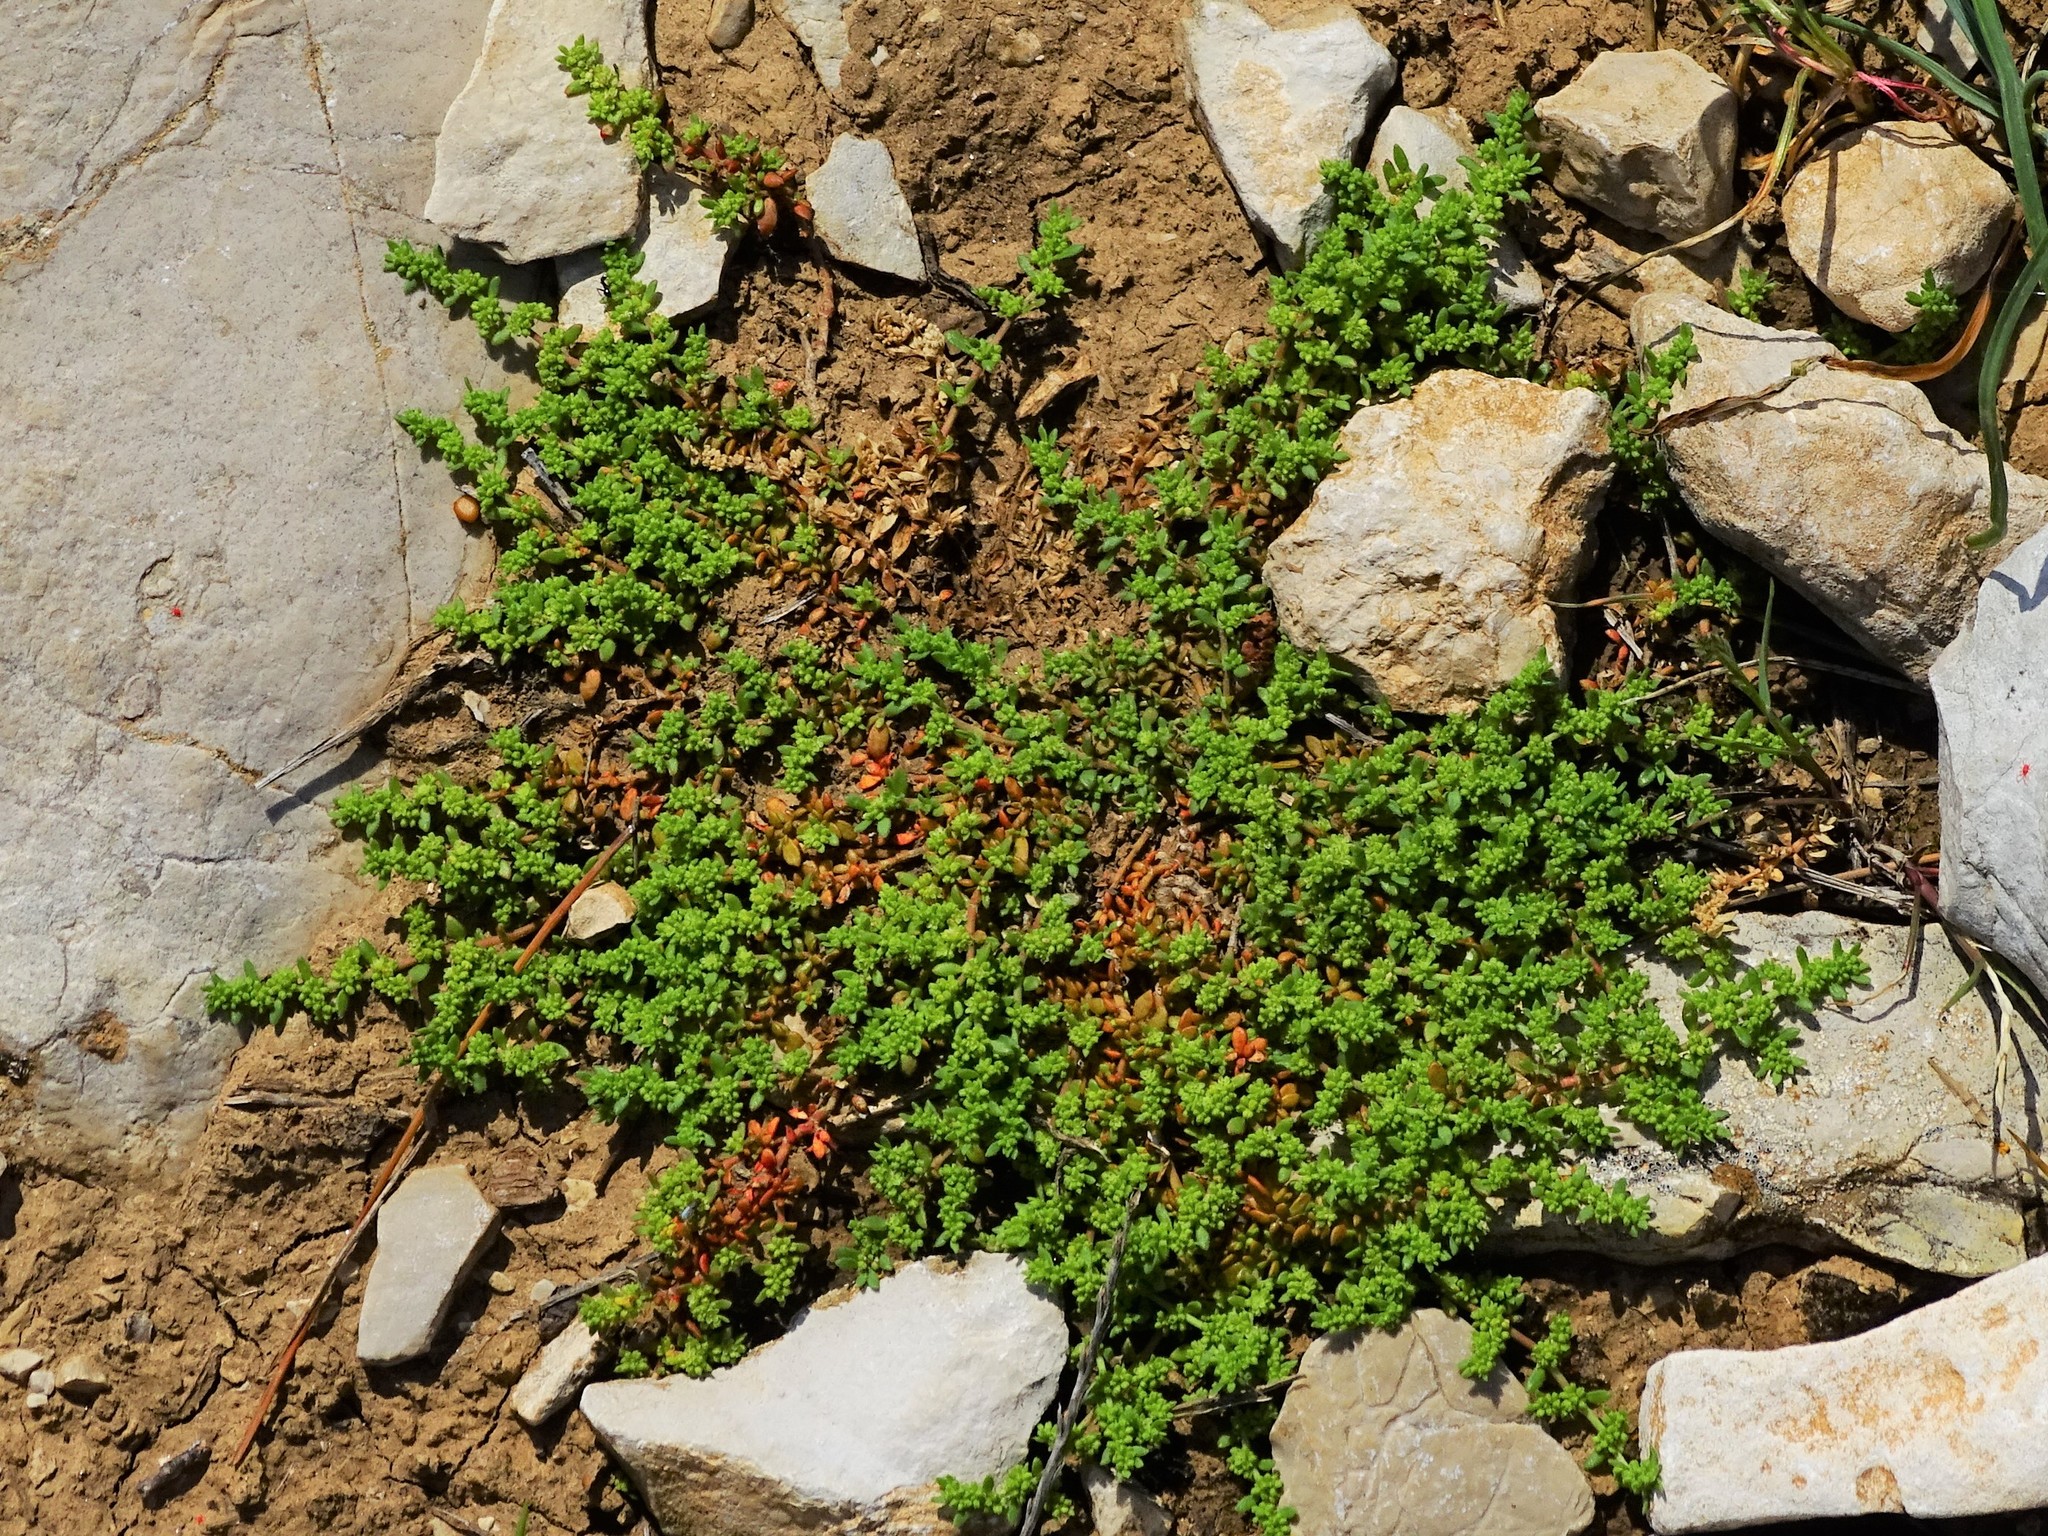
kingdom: Plantae
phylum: Tracheophyta
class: Magnoliopsida
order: Caryophyllales
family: Caryophyllaceae
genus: Herniaria
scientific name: Herniaria hirsuta
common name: Hairy rupturewort
